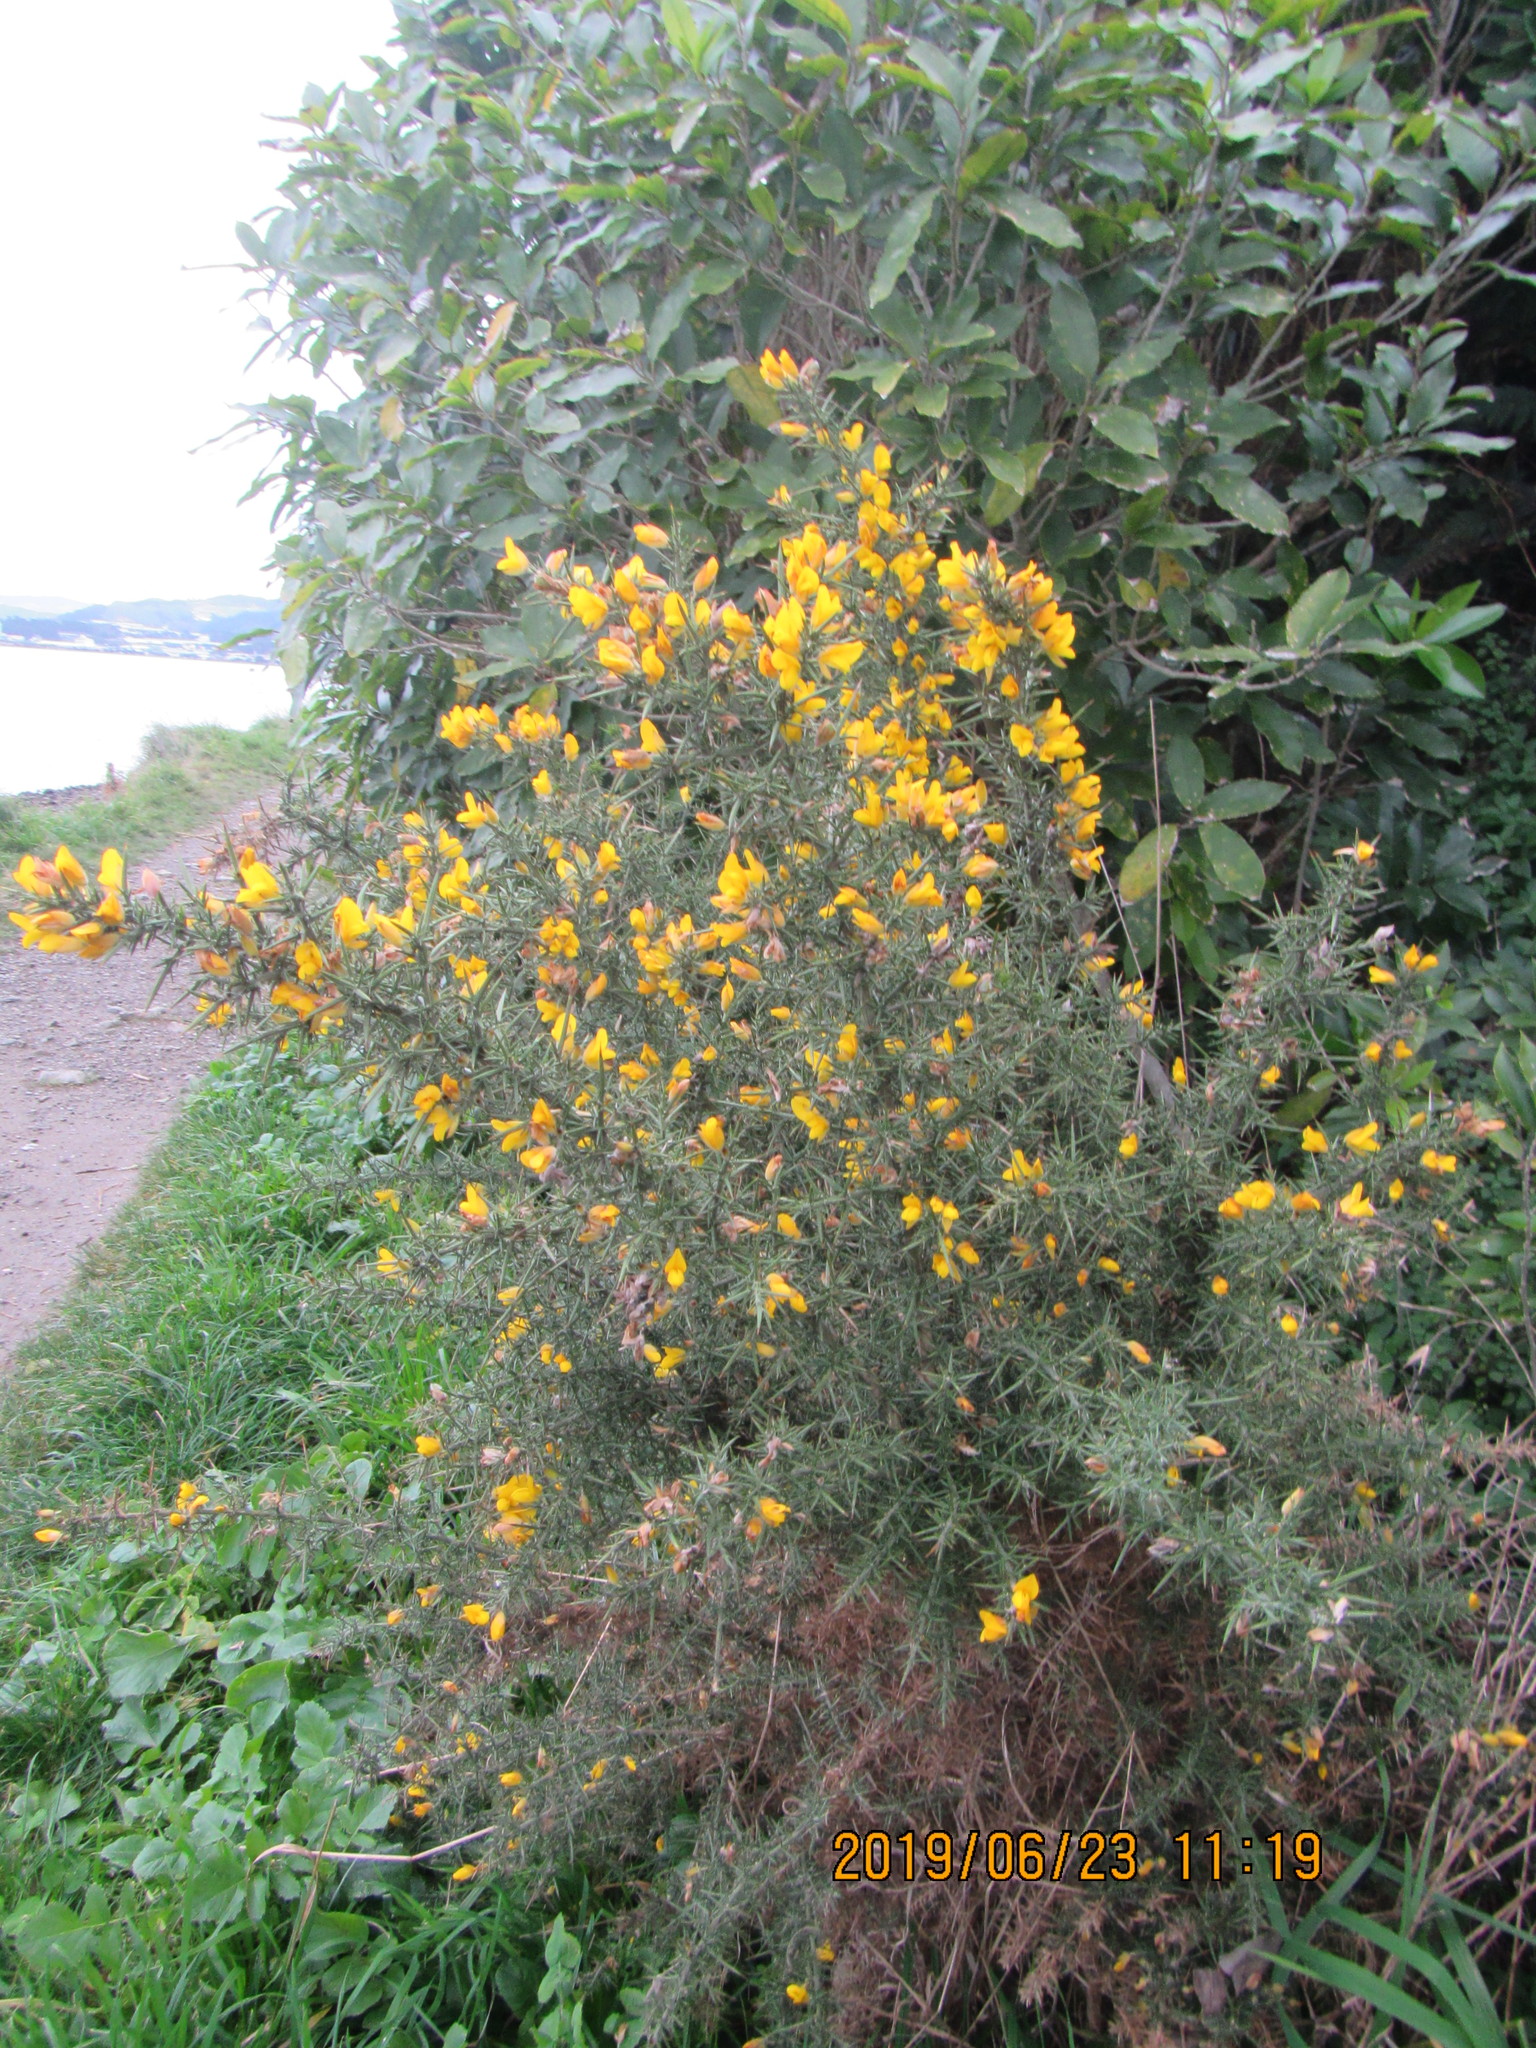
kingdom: Plantae
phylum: Tracheophyta
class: Magnoliopsida
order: Fabales
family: Fabaceae
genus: Ulex
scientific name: Ulex europaeus
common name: Common gorse
